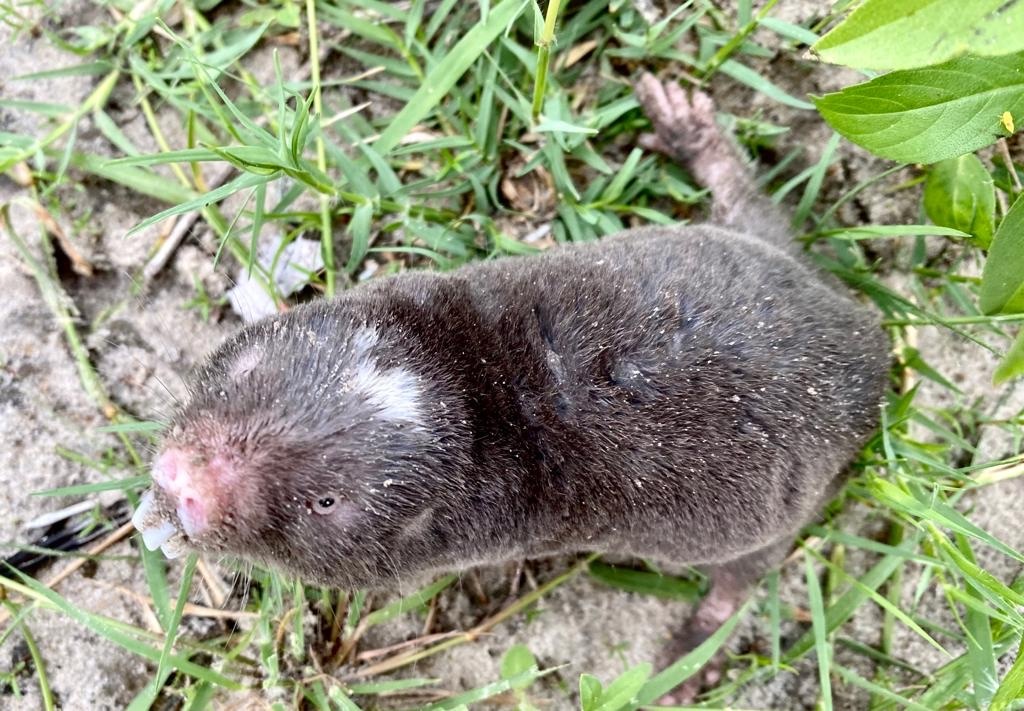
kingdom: Animalia
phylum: Chordata
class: Mammalia
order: Rodentia
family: Bathyergidae
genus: Fukomys
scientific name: Fukomys damarensis
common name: Damara mole rat
